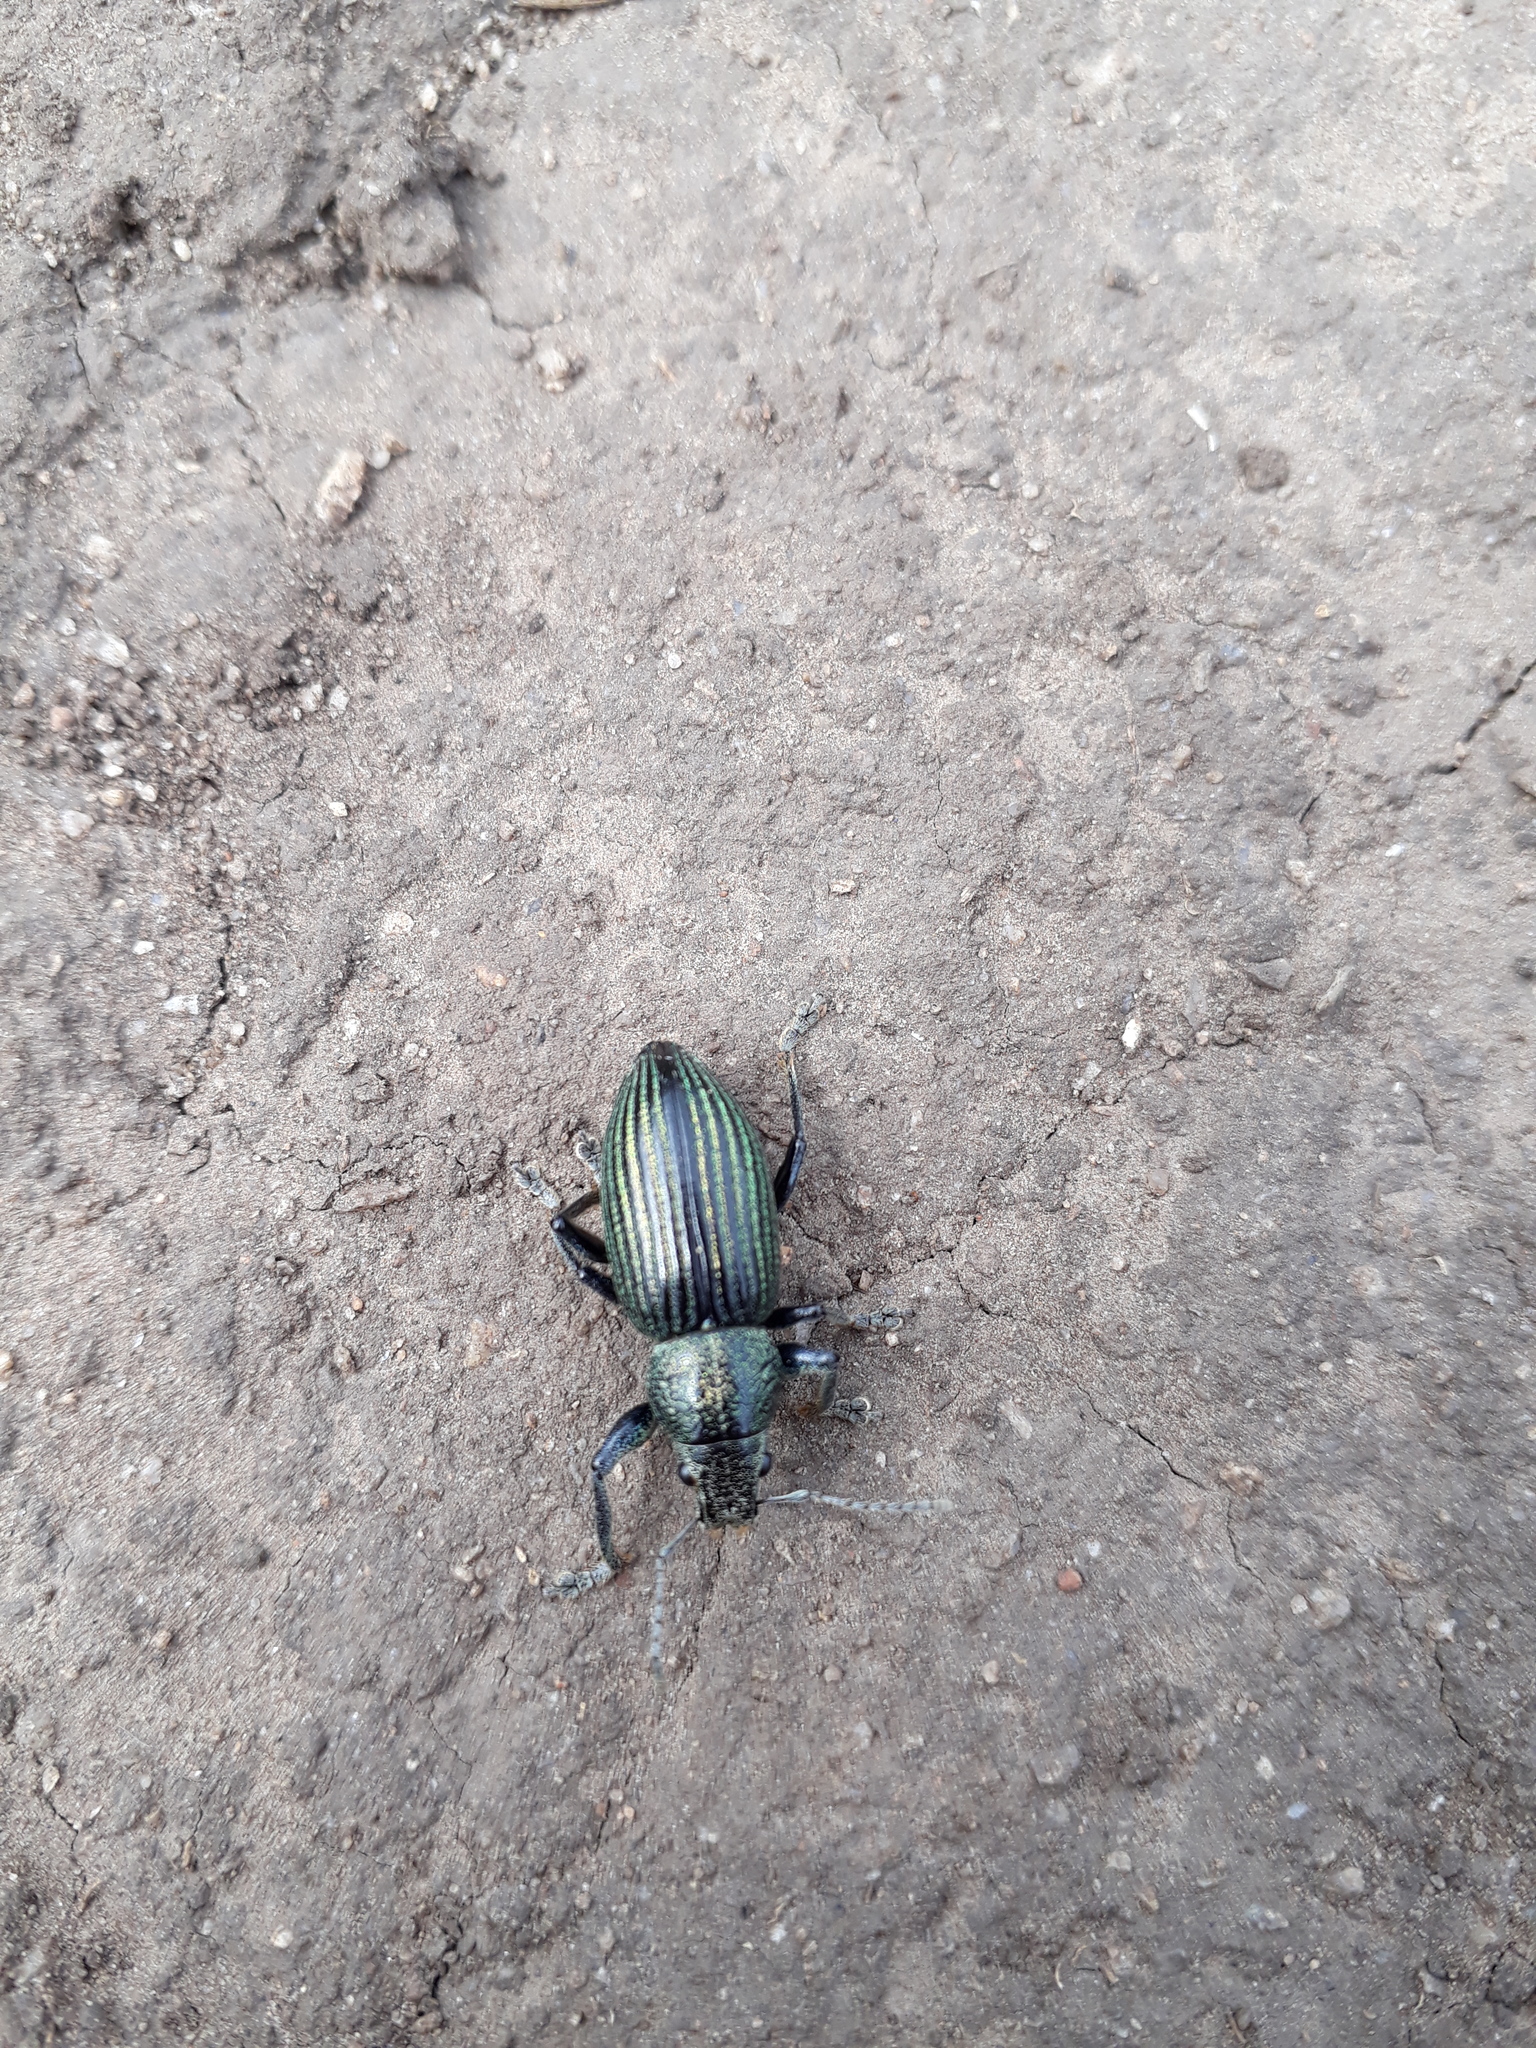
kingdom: Animalia
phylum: Arthropoda
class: Insecta
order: Coleoptera
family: Curculionidae
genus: Naupactus
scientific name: Naupactus dives
